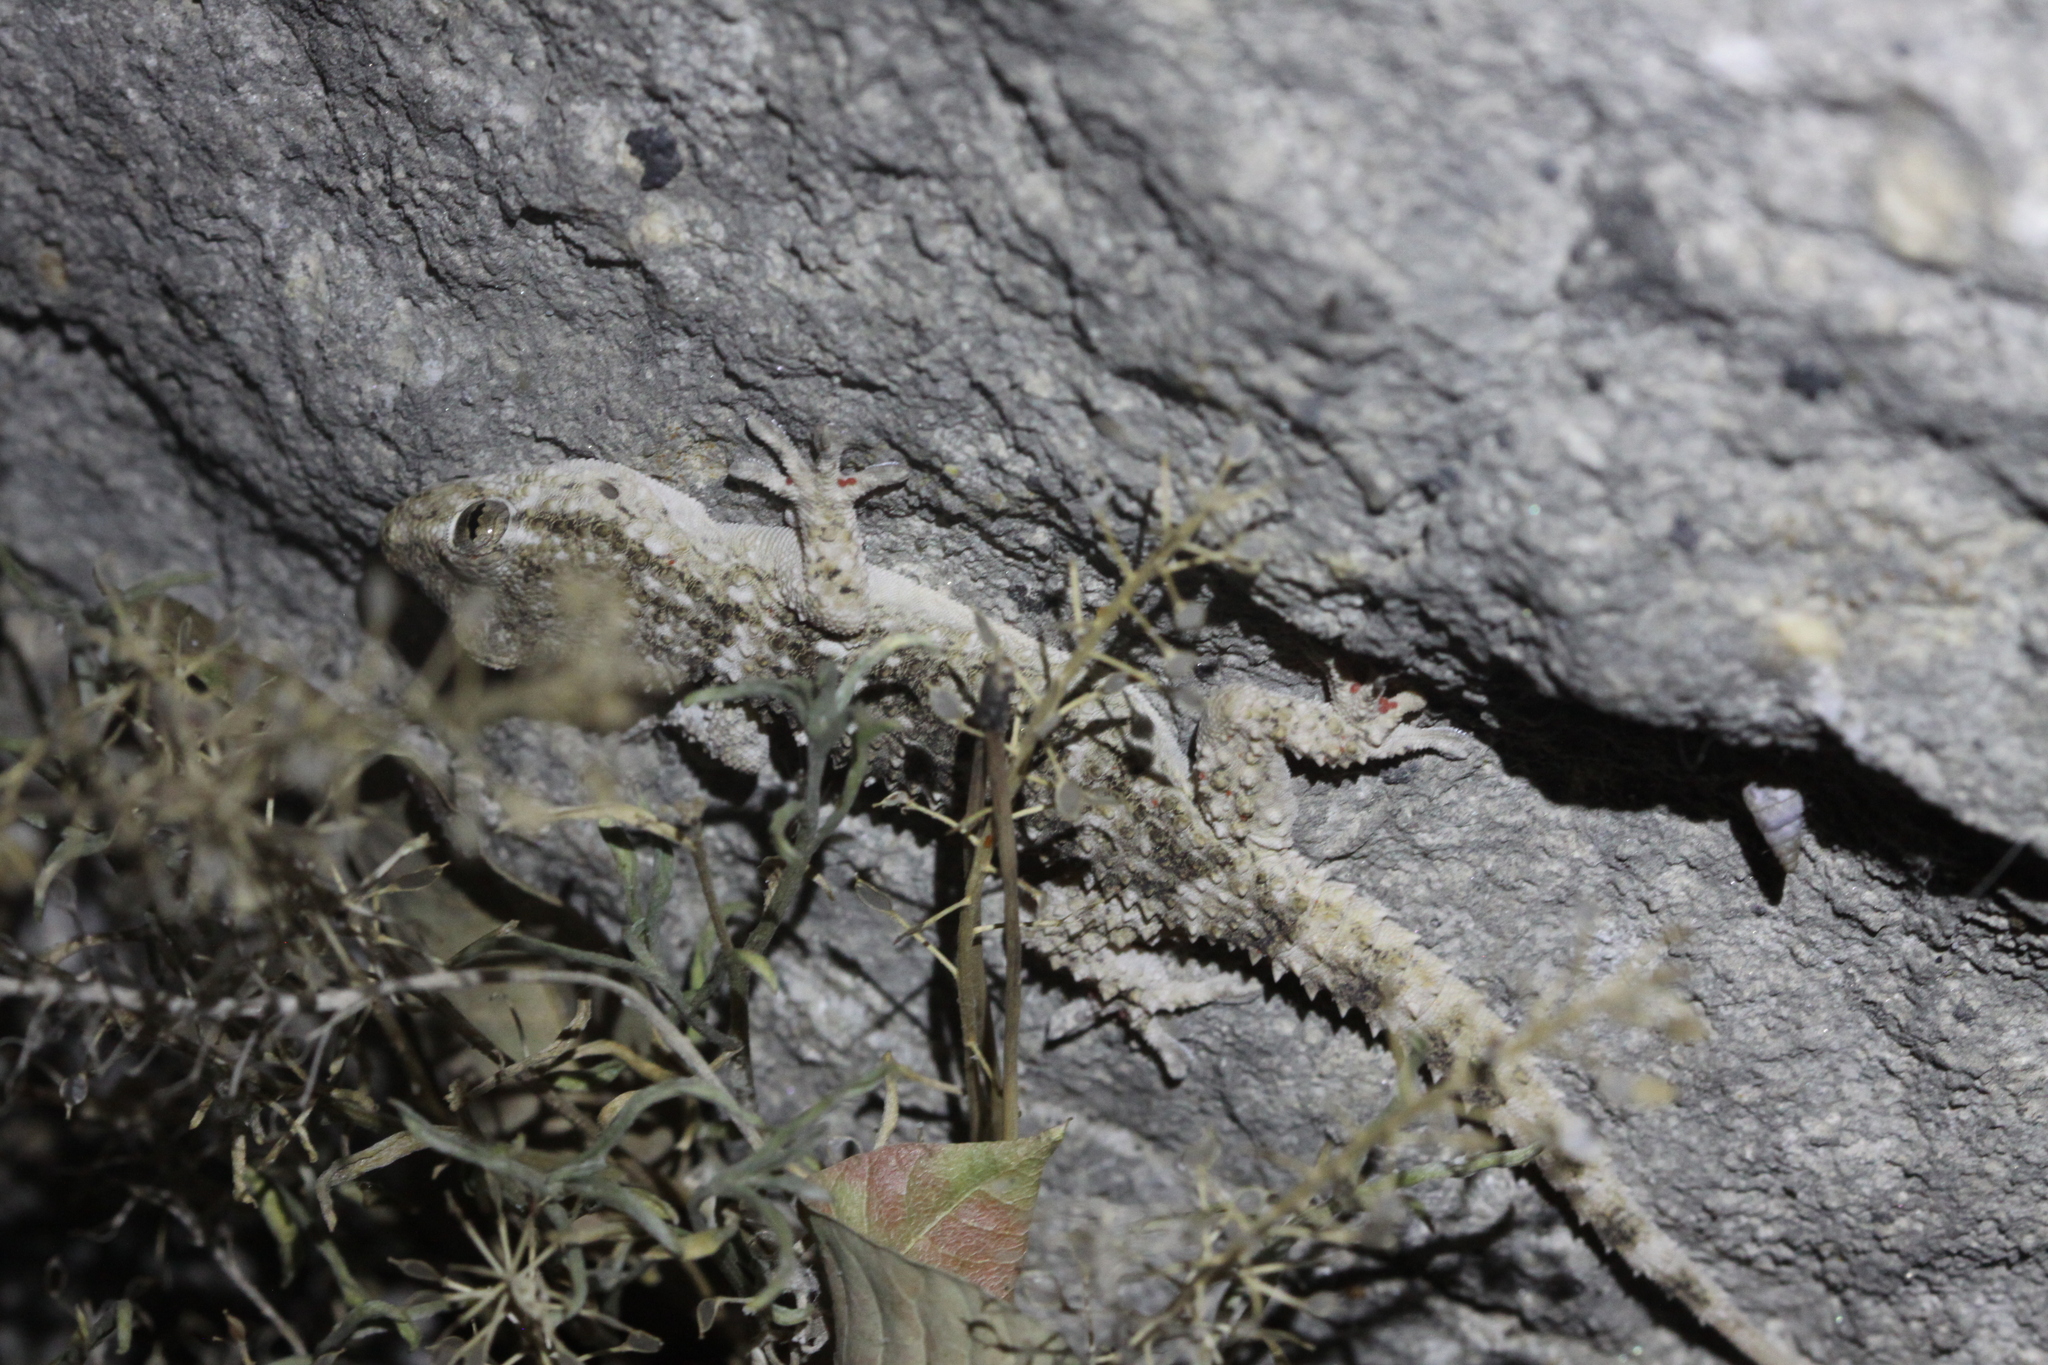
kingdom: Animalia
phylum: Chordata
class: Squamata
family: Phyllodactylidae
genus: Tarentola
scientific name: Tarentola mauritanica
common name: Moorish gecko
